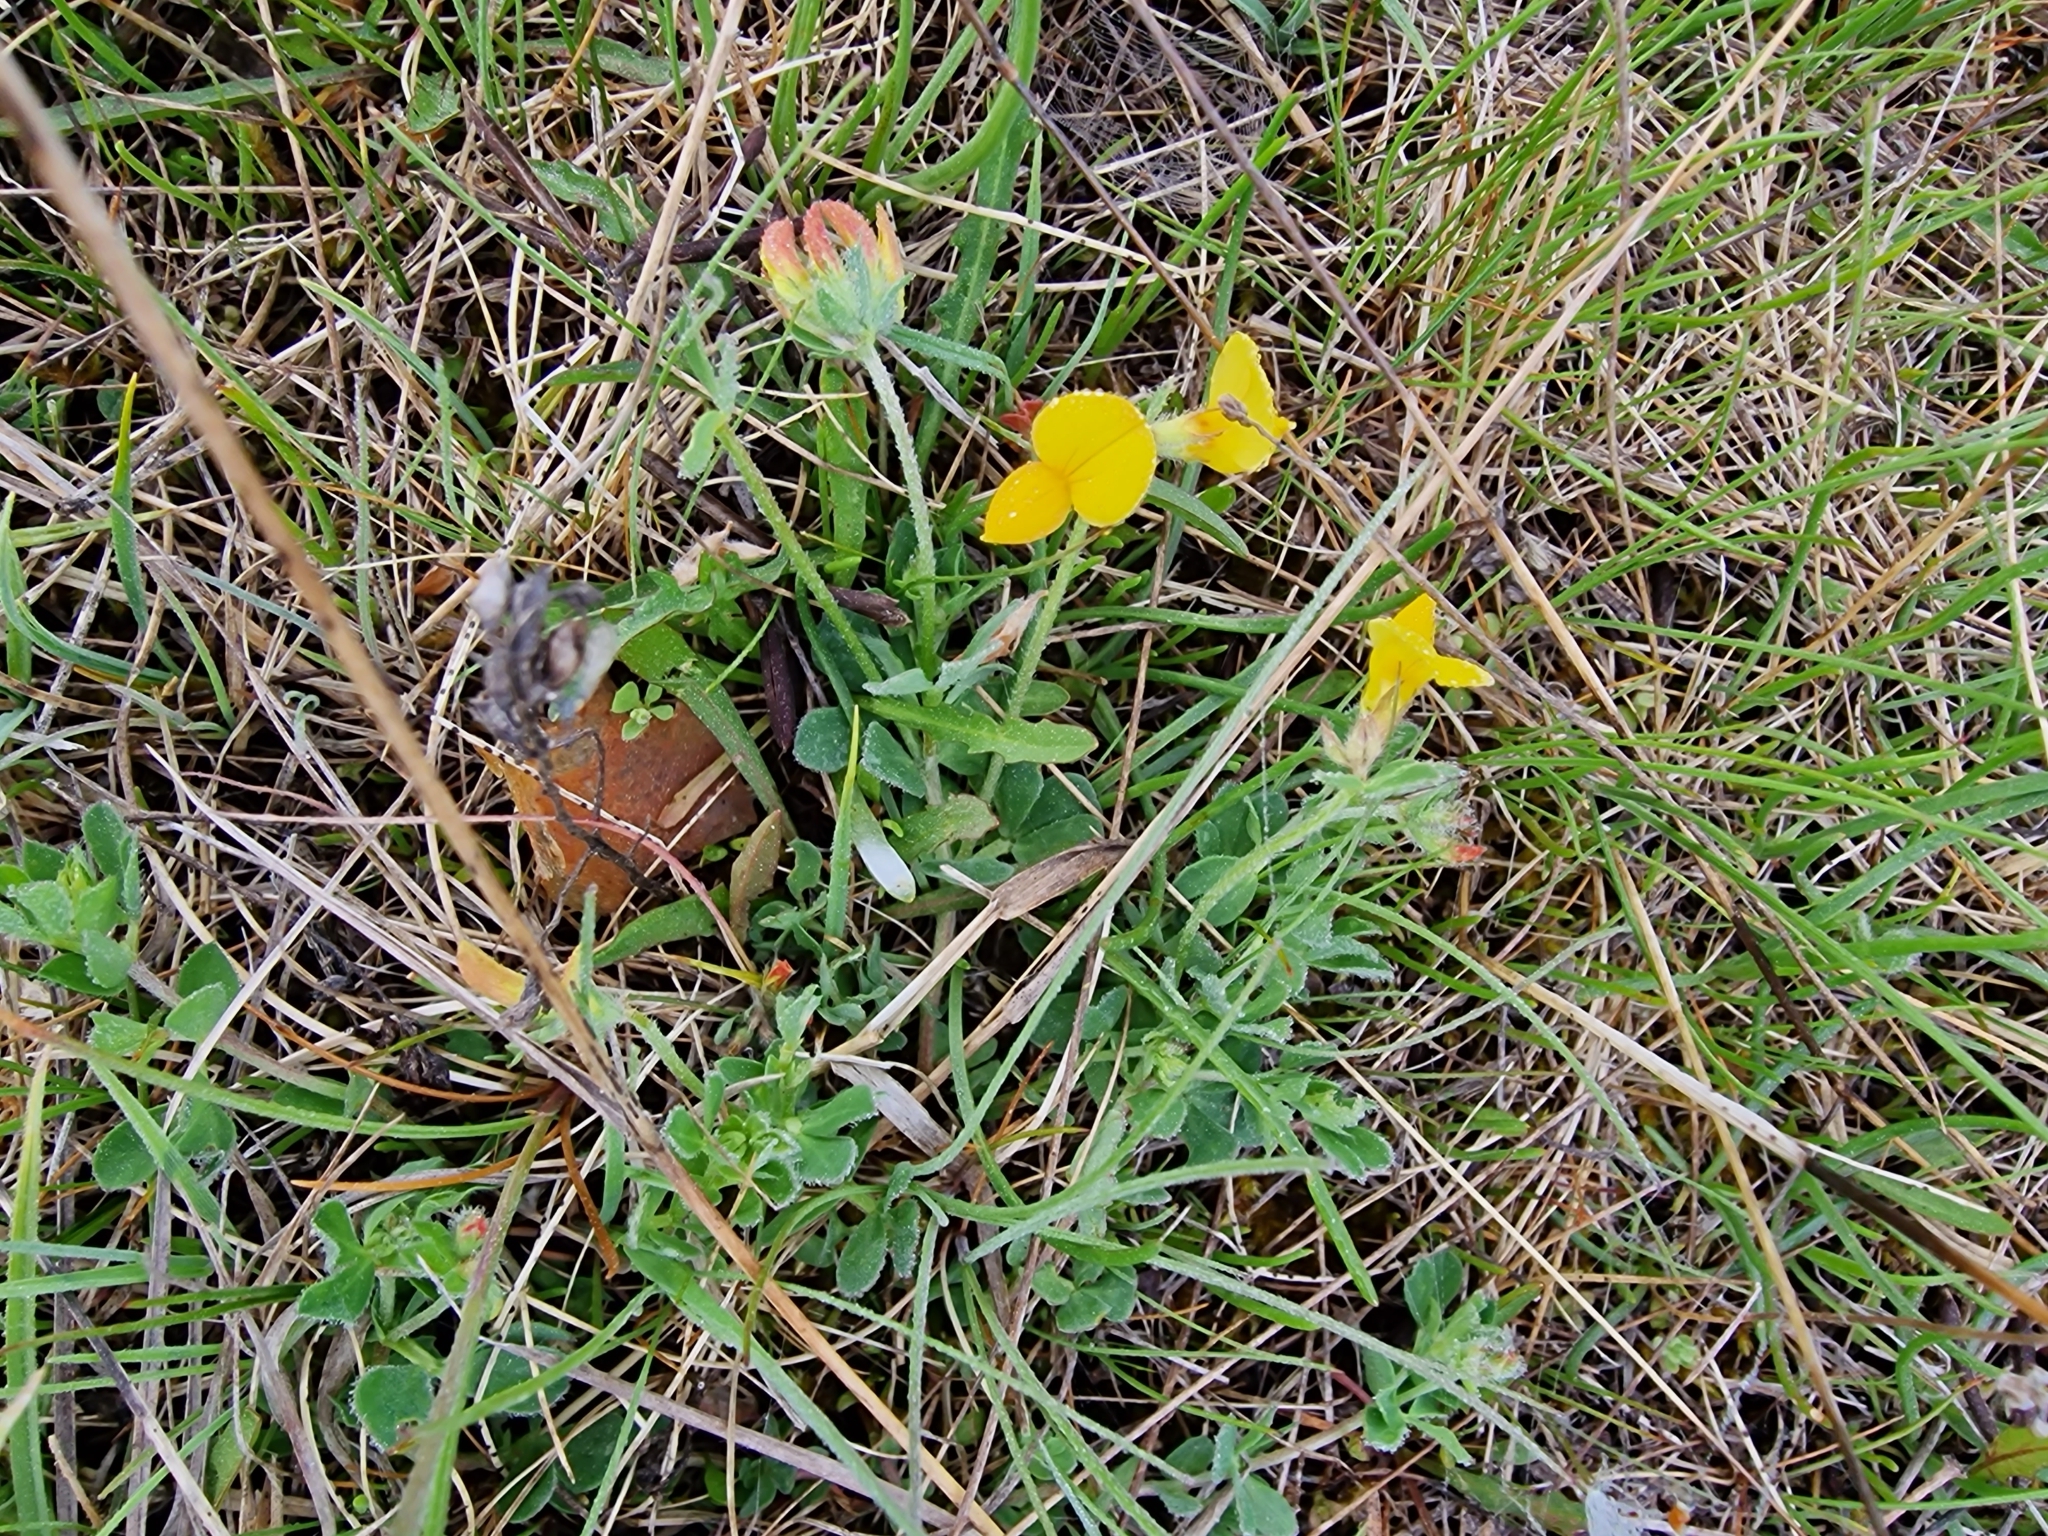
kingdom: Plantae
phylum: Tracheophyta
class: Magnoliopsida
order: Fabales
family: Fabaceae
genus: Lotus
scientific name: Lotus corniculatus
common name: Common bird's-foot-trefoil
